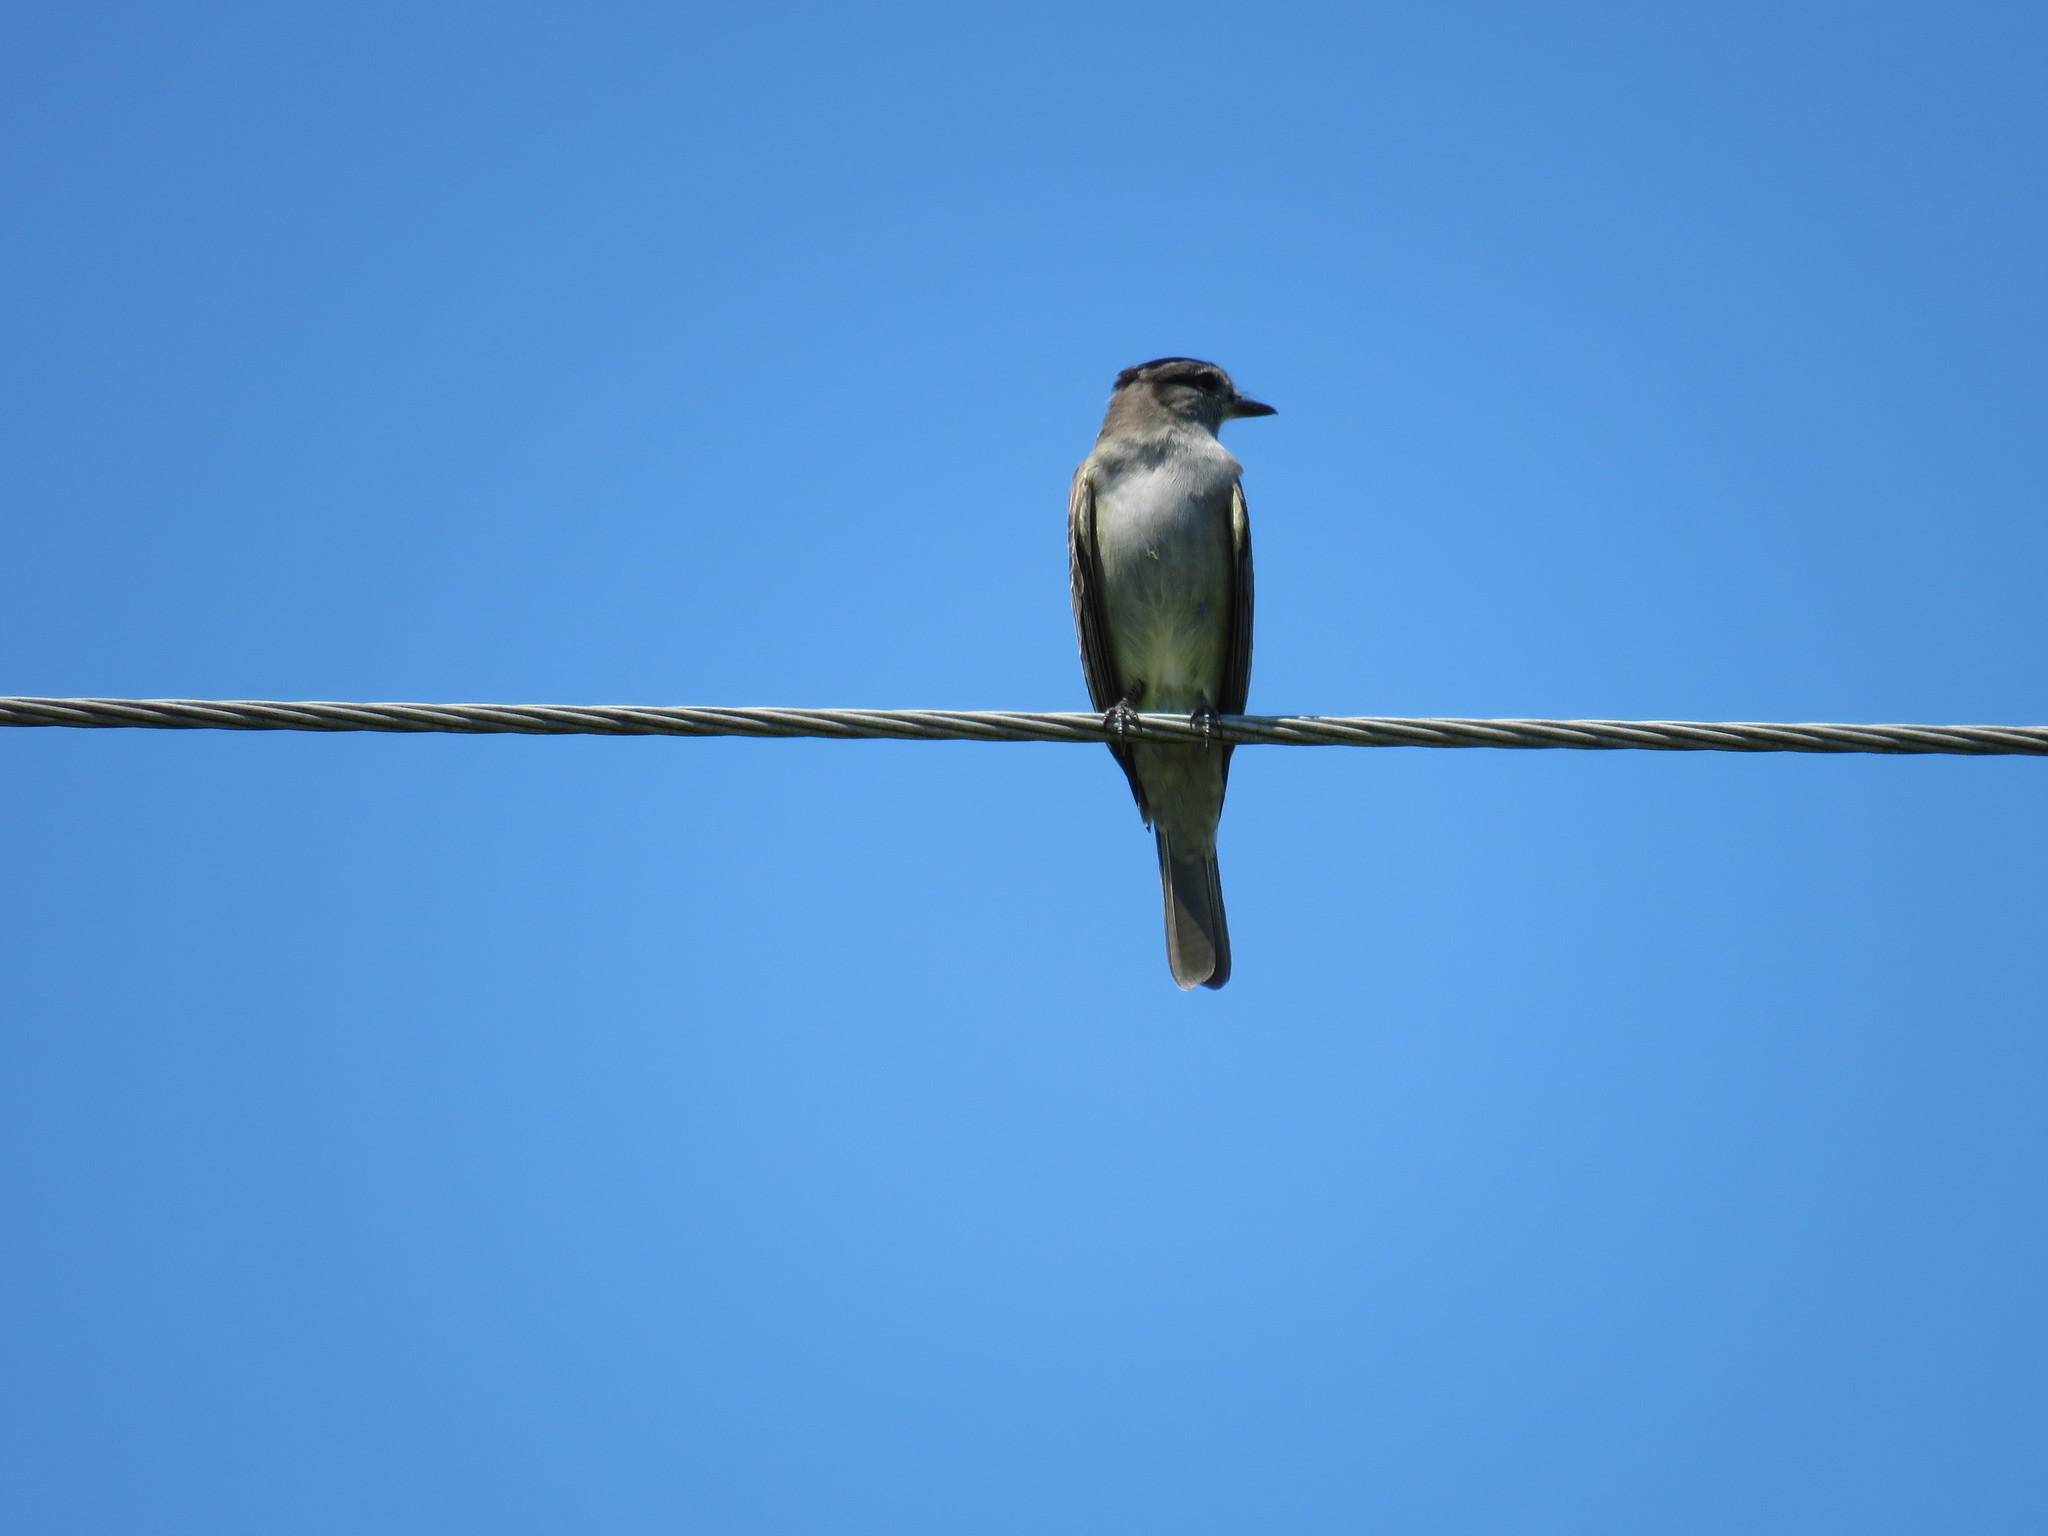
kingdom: Animalia
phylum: Chordata
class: Aves
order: Passeriformes
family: Tyrannidae
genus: Empidonomus
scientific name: Empidonomus aurantioatrocristatus
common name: Crowned slaty flycatcher
